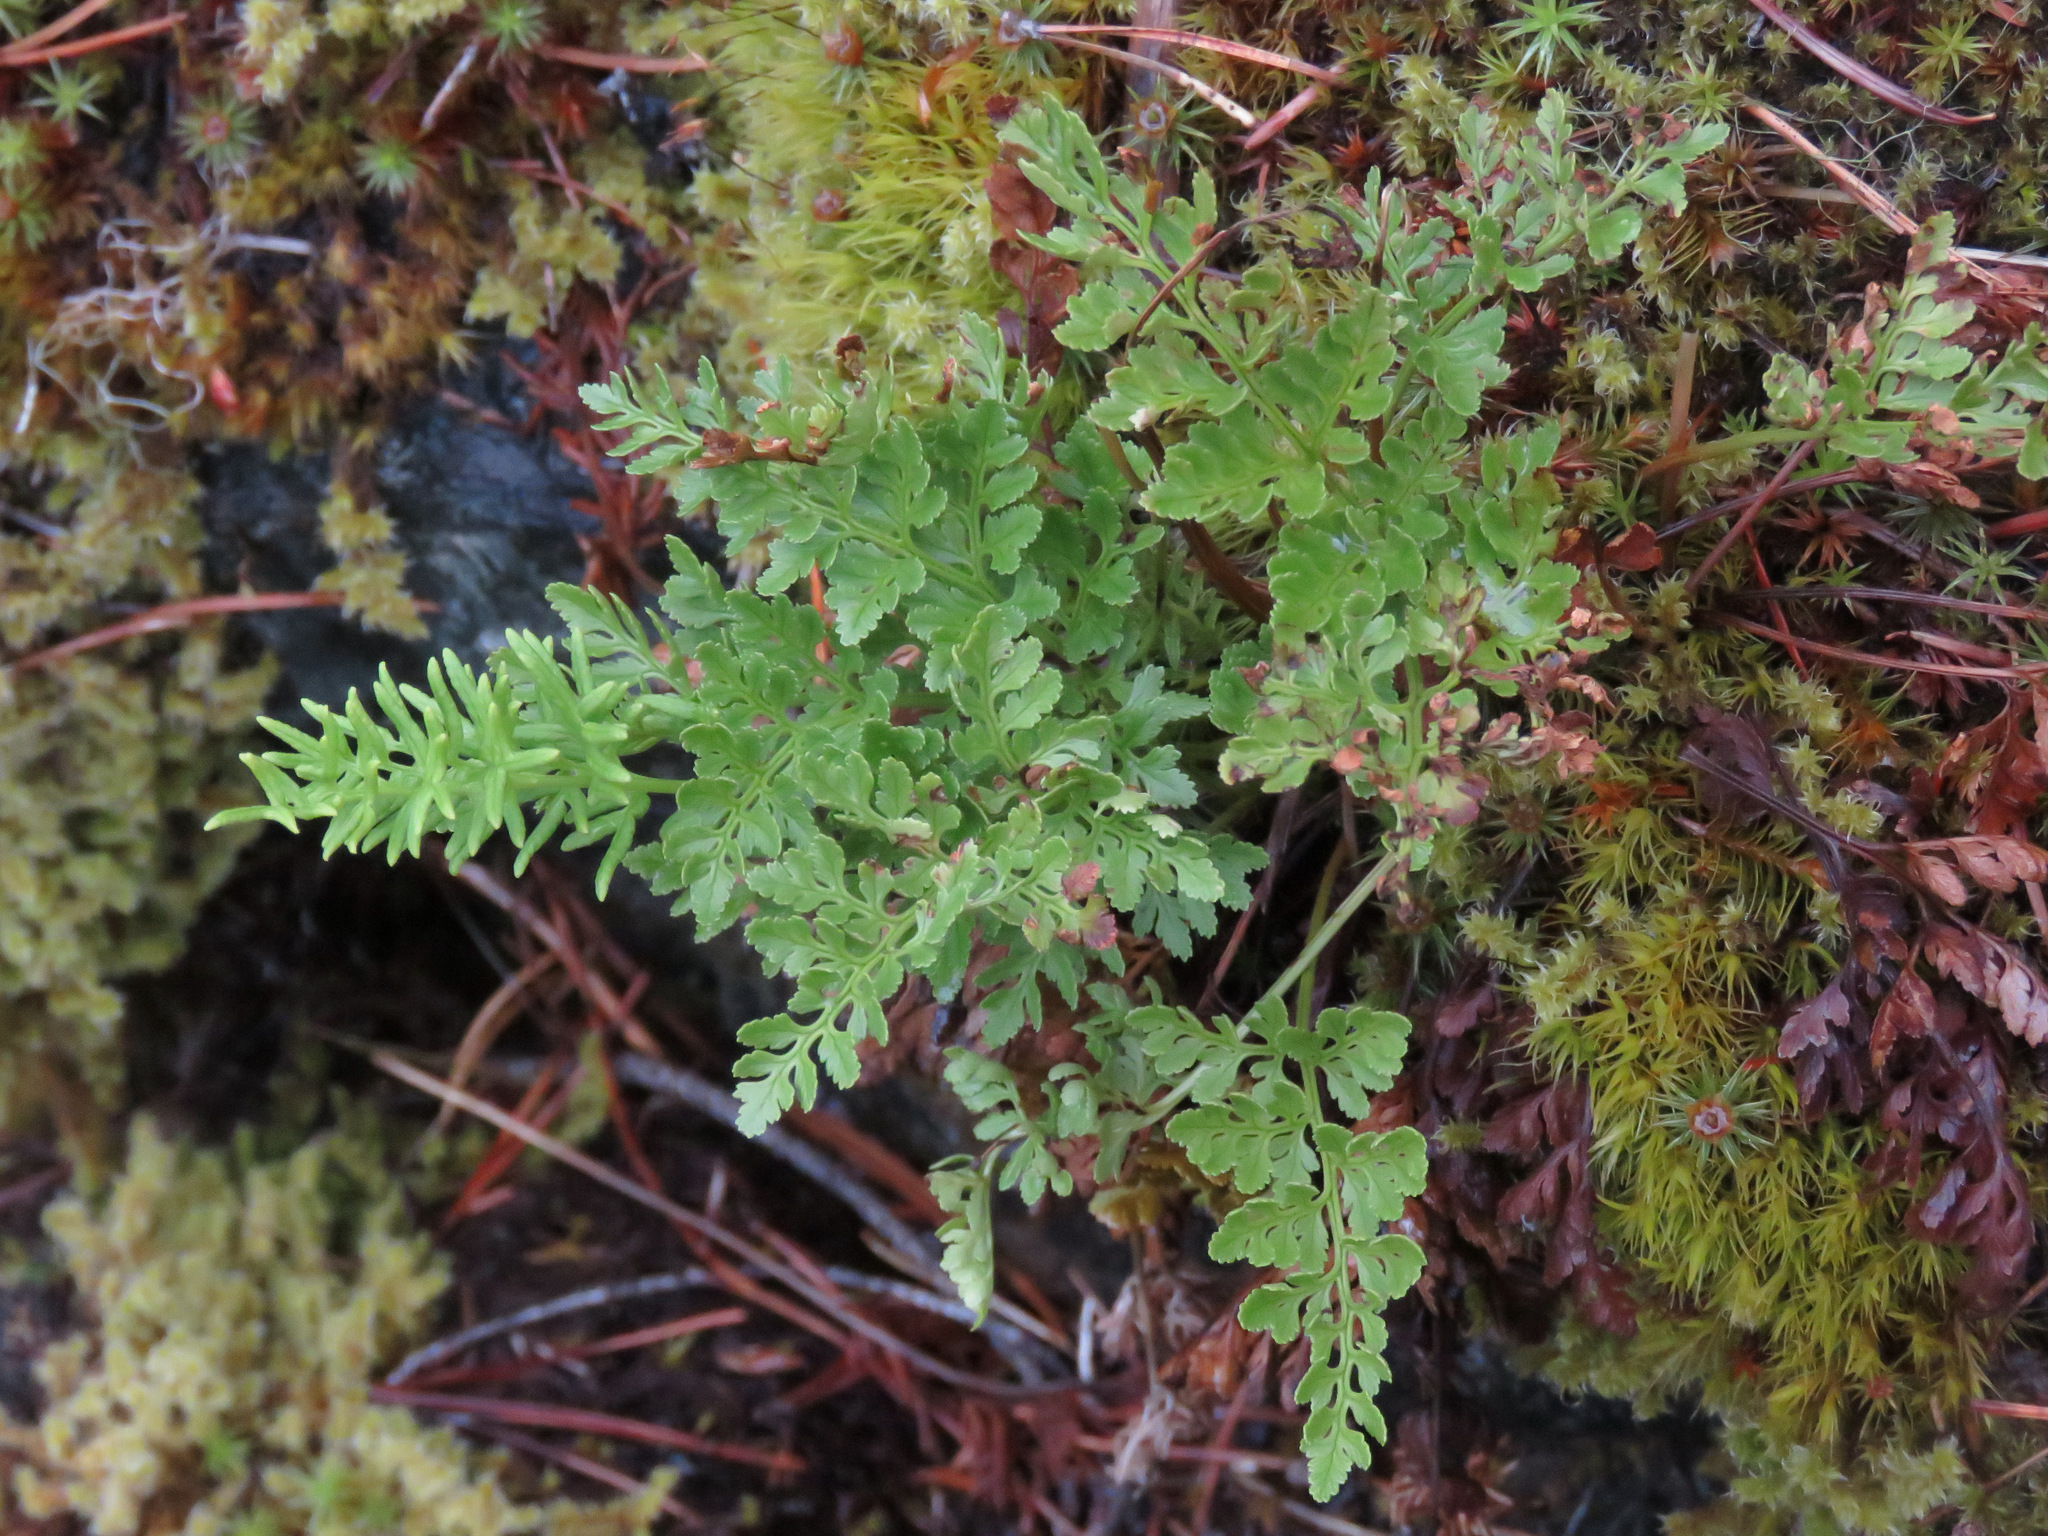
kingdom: Plantae
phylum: Tracheophyta
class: Polypodiopsida
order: Polypodiales
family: Pteridaceae
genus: Cryptogramma
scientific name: Cryptogramma acrostichoides
